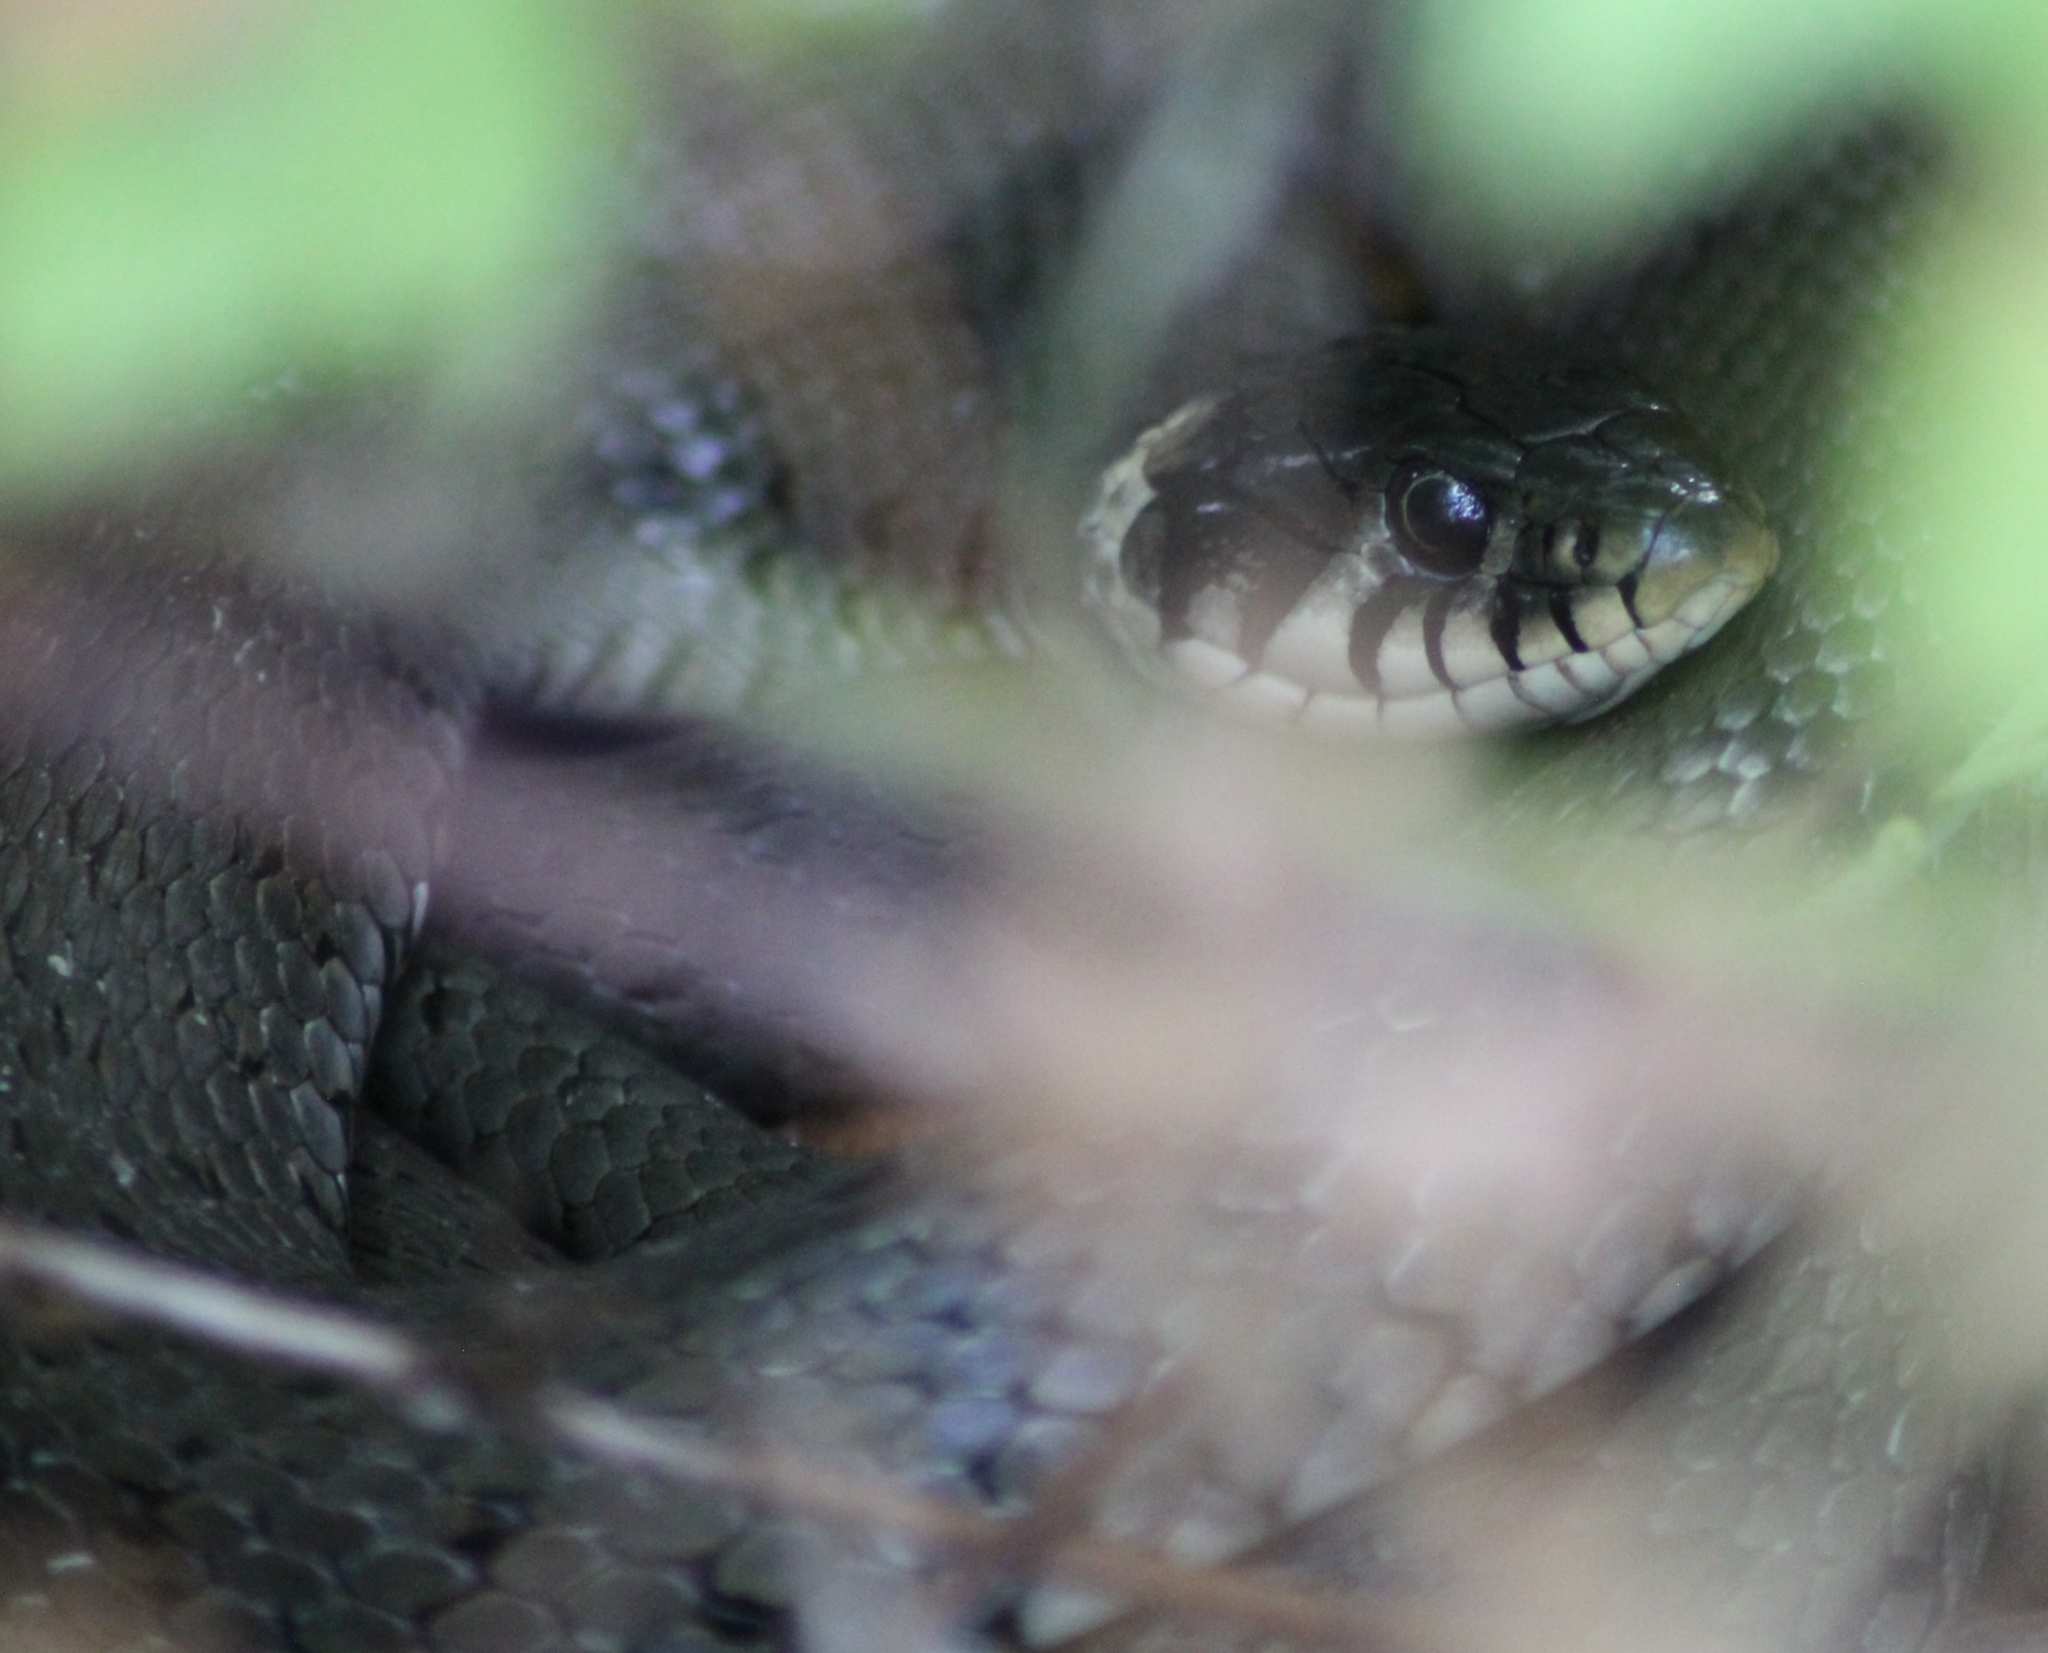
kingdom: Animalia
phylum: Chordata
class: Squamata
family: Colubridae
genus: Natrix
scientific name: Natrix natrix
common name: Grass snake
